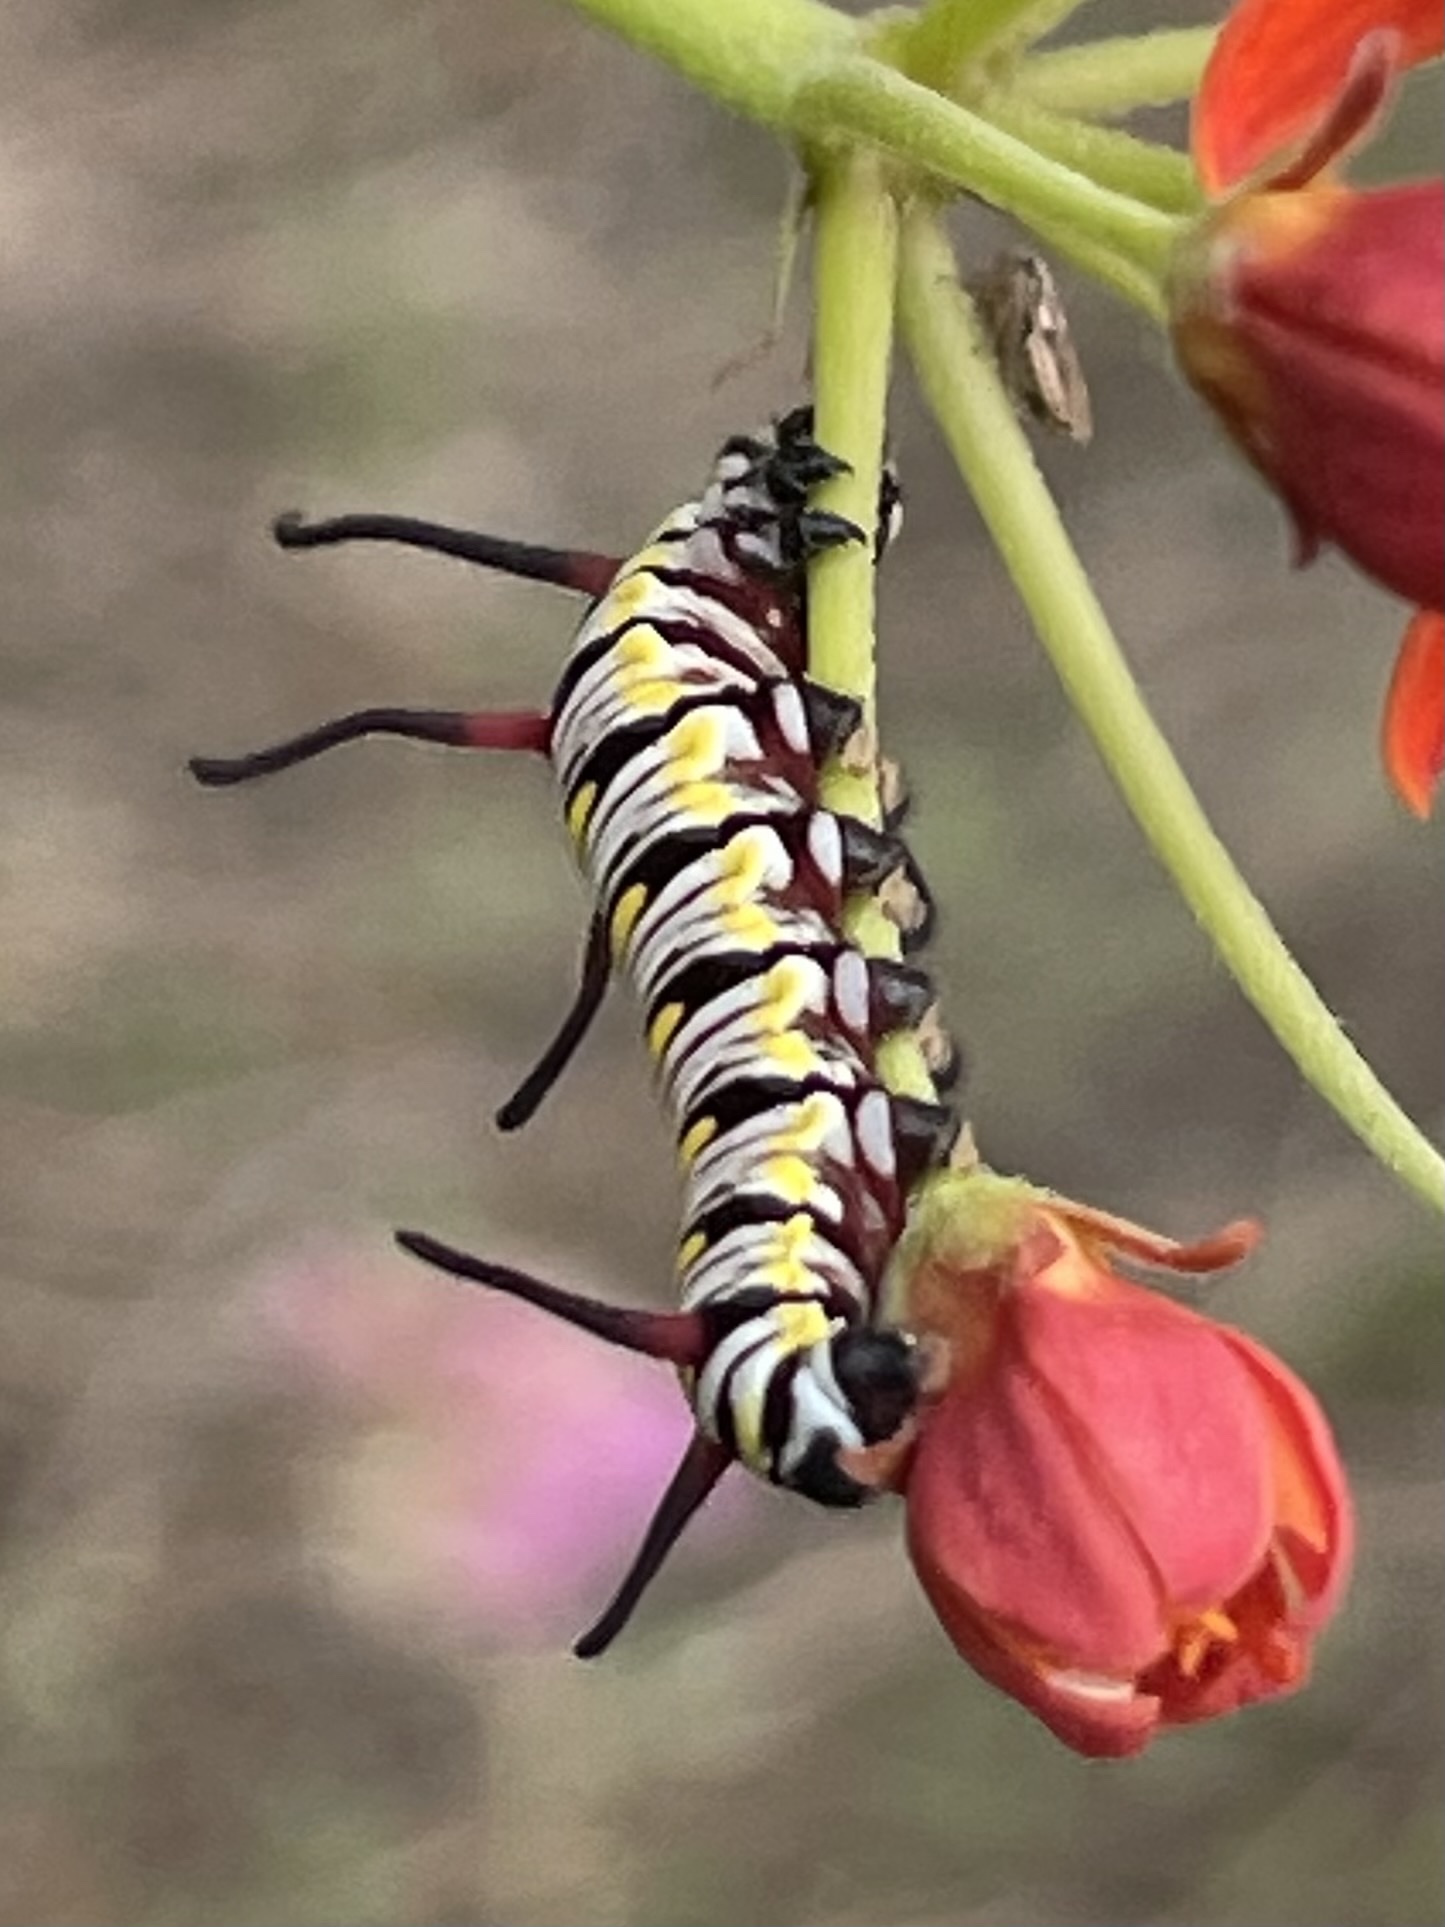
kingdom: Animalia
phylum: Arthropoda
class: Insecta
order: Lepidoptera
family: Nymphalidae
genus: Danaus
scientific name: Danaus gilippus
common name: Queen
